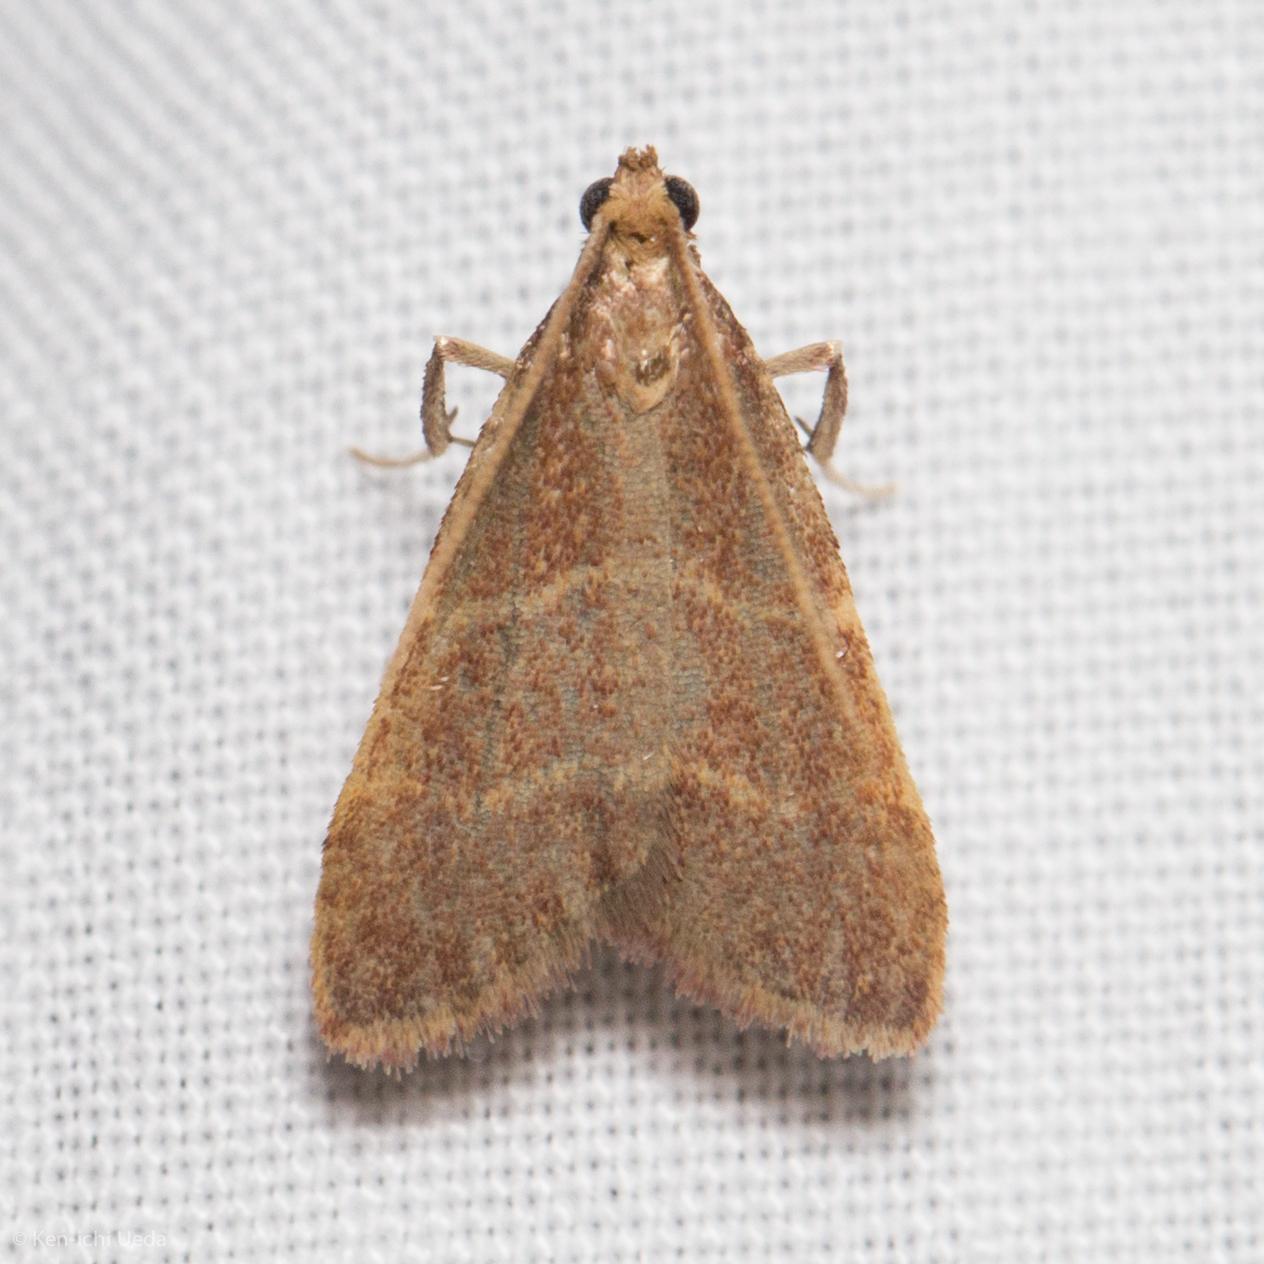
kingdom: Animalia
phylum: Arthropoda
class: Insecta
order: Lepidoptera
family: Pyralidae
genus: Arta
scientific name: Arta epicoenalis
